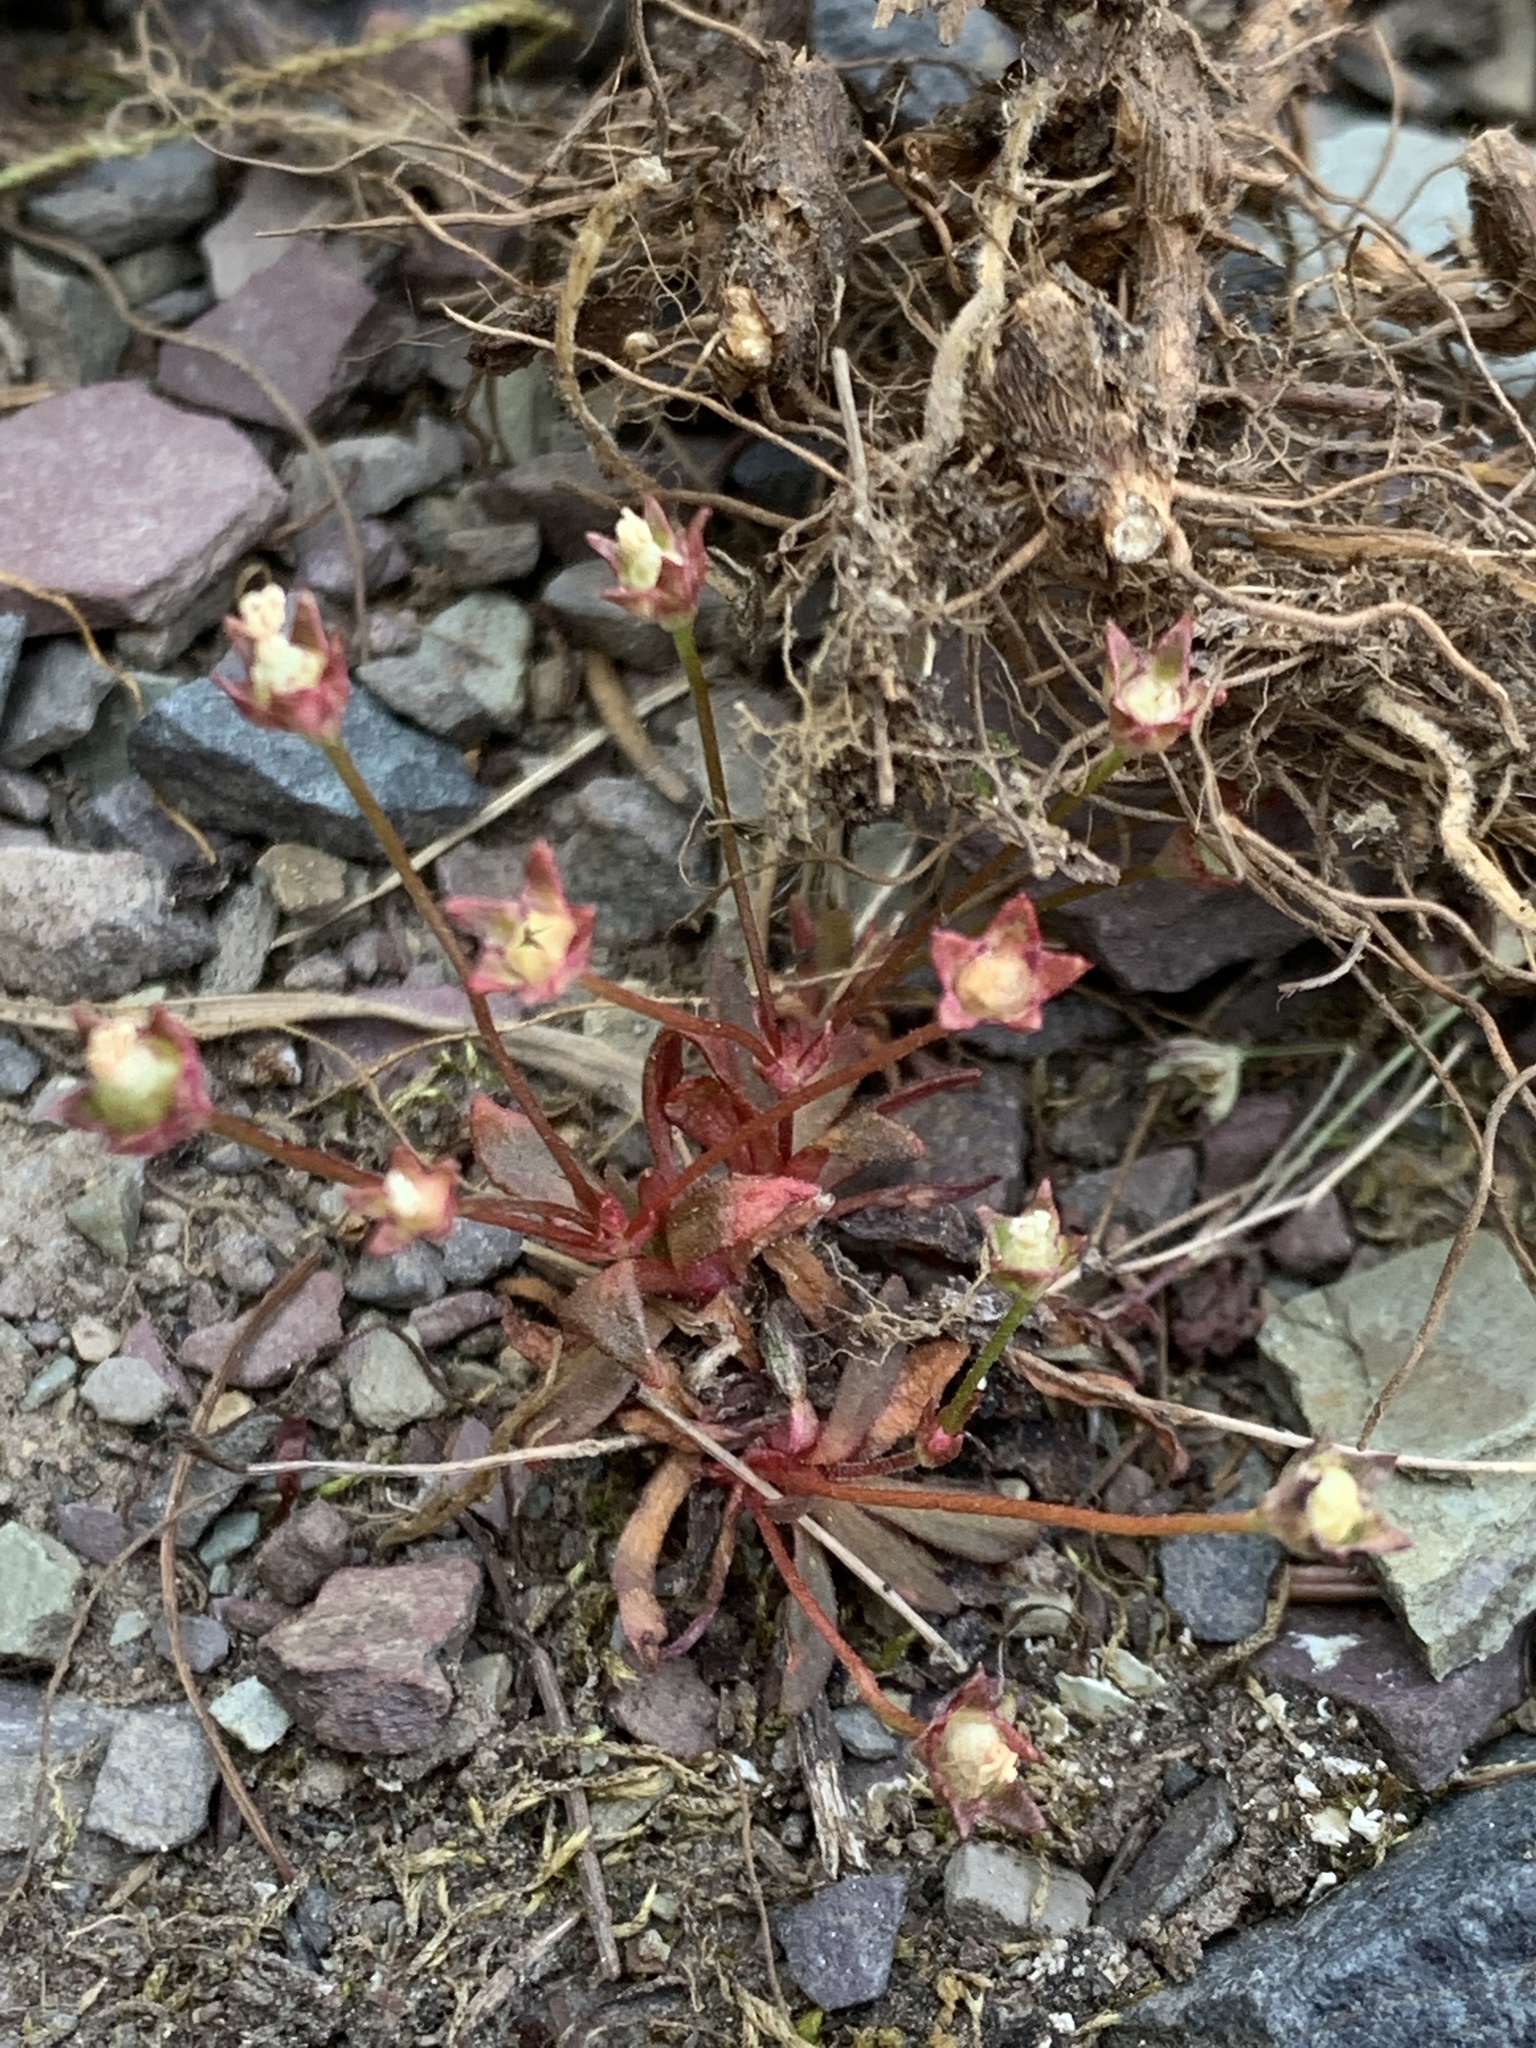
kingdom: Plantae
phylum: Tracheophyta
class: Magnoliopsida
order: Ericales
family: Primulaceae
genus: Androsace
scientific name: Androsace septentrionalis
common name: Hairy northern fairy-candelabra
